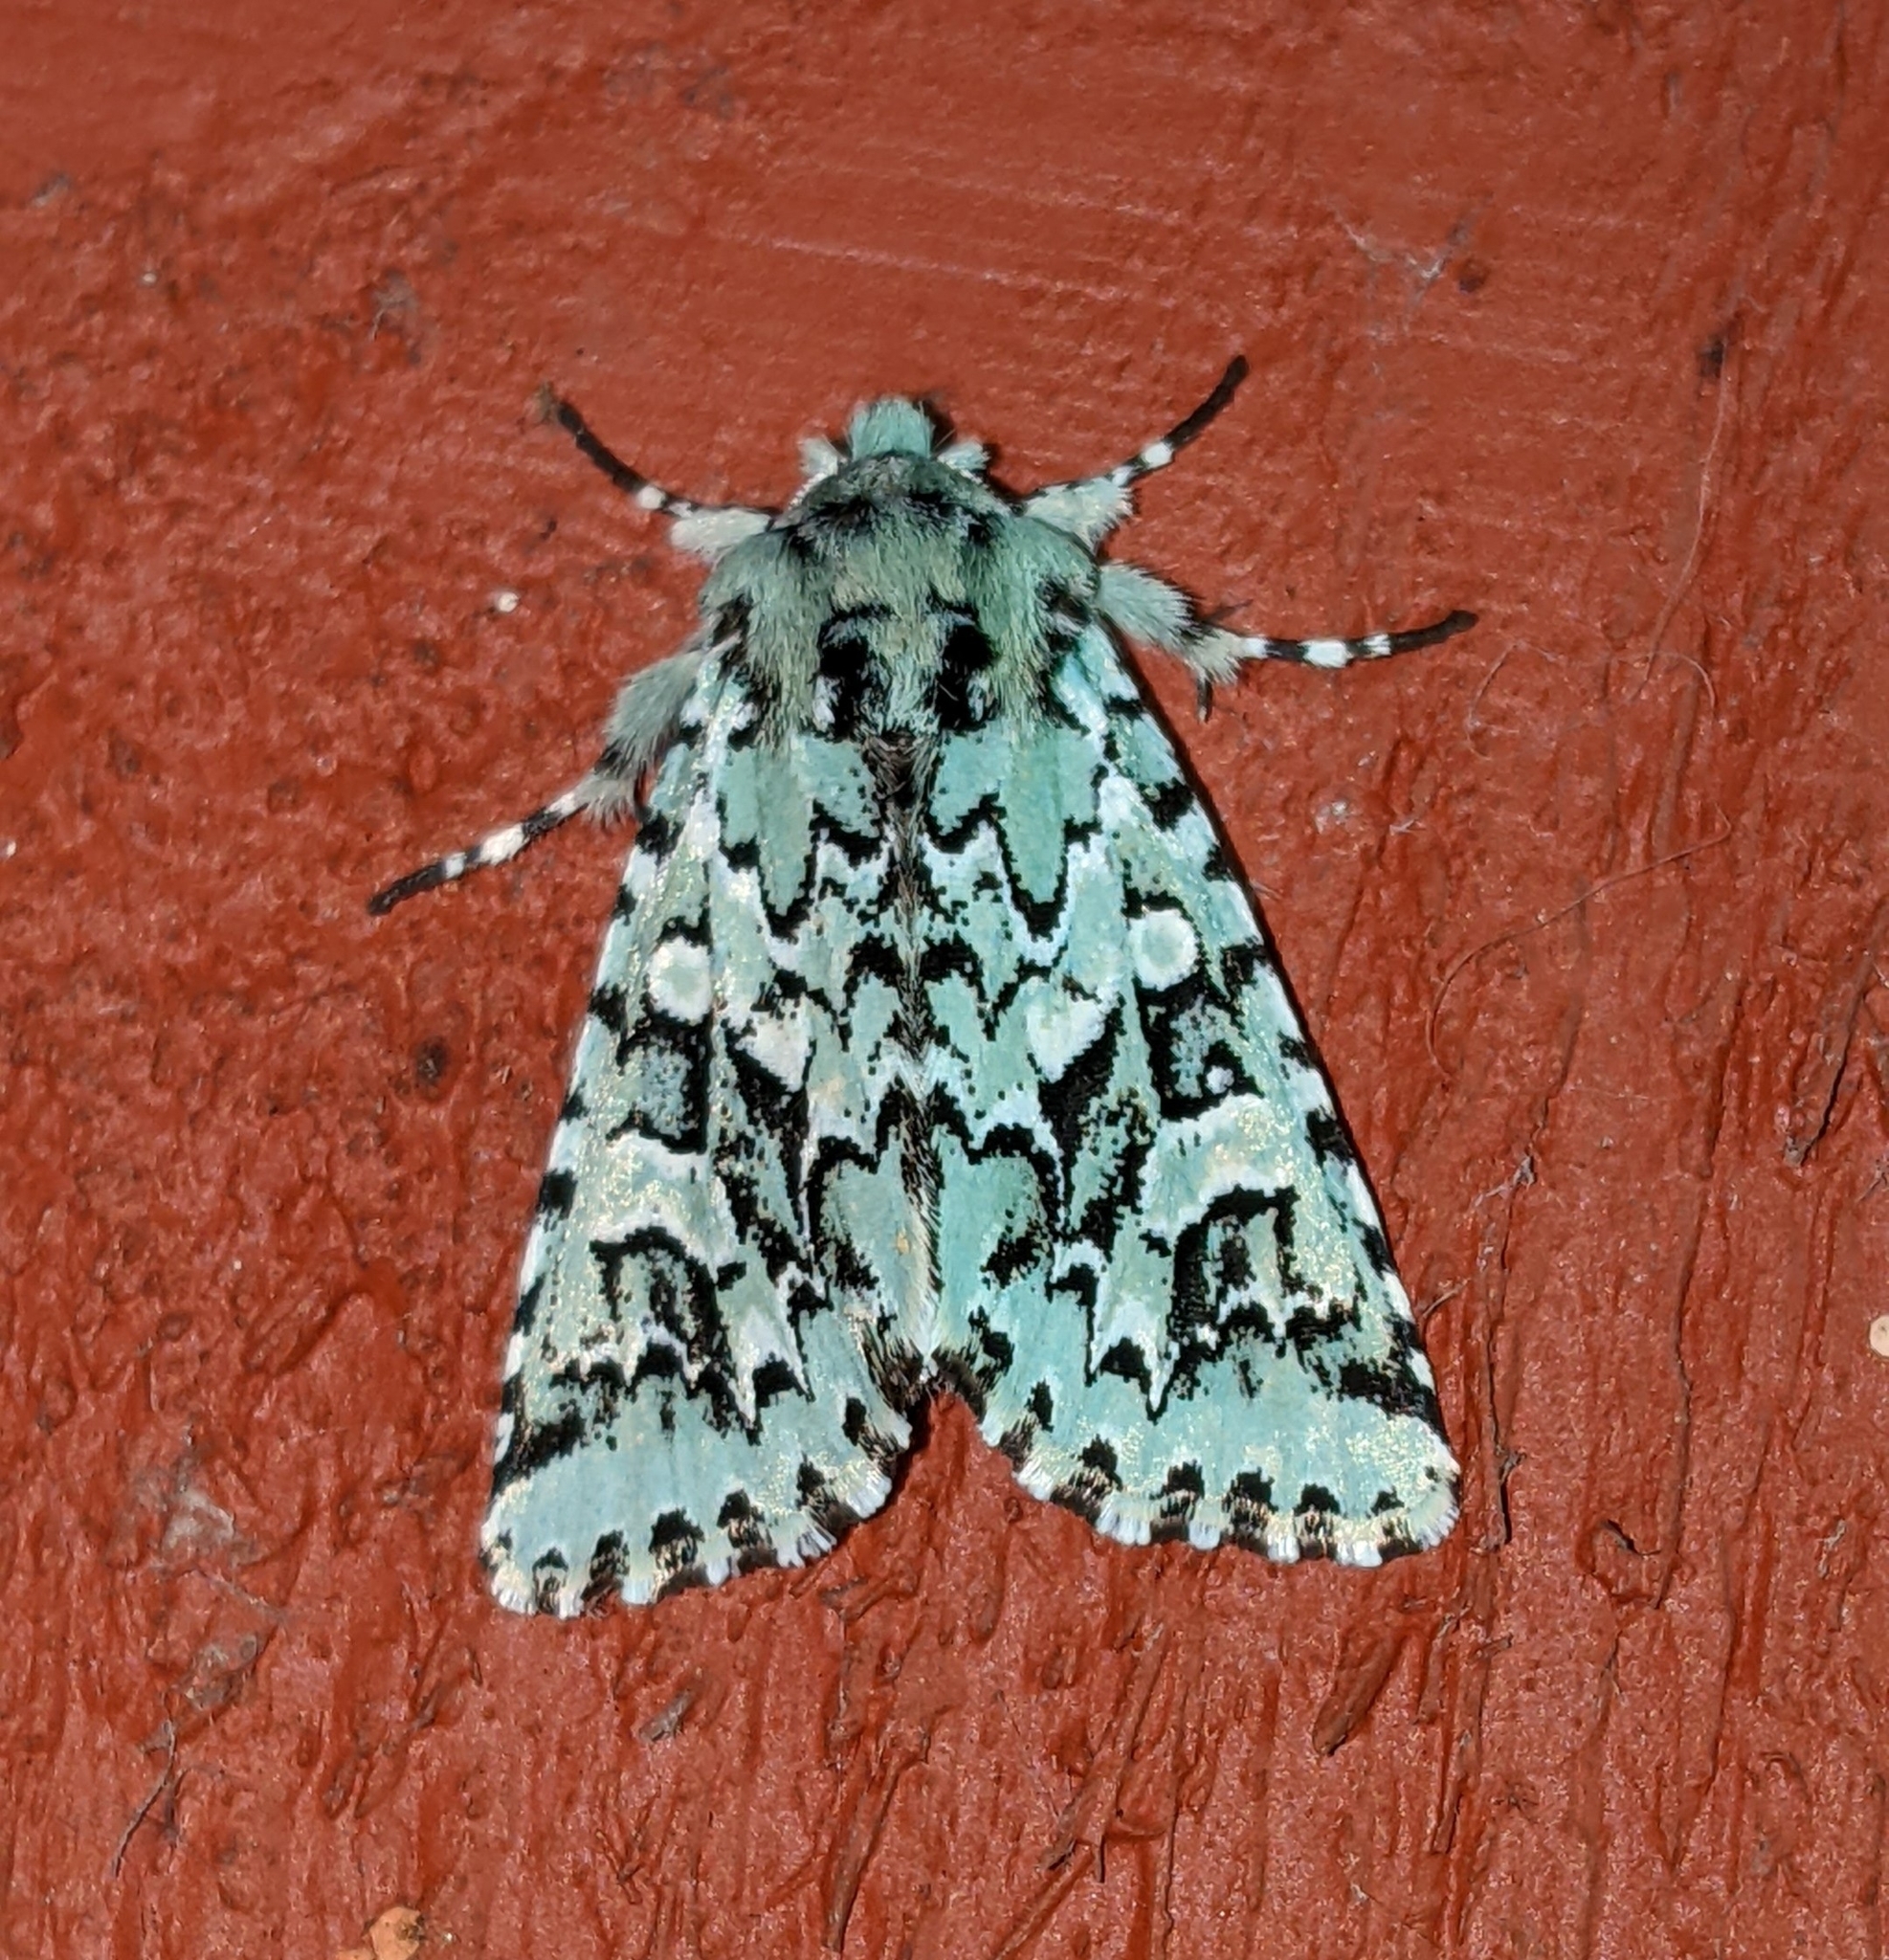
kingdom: Animalia
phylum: Arthropoda
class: Insecta
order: Lepidoptera
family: Noctuidae
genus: Feralia
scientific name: Feralia comstocki
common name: Comstock's sallow
